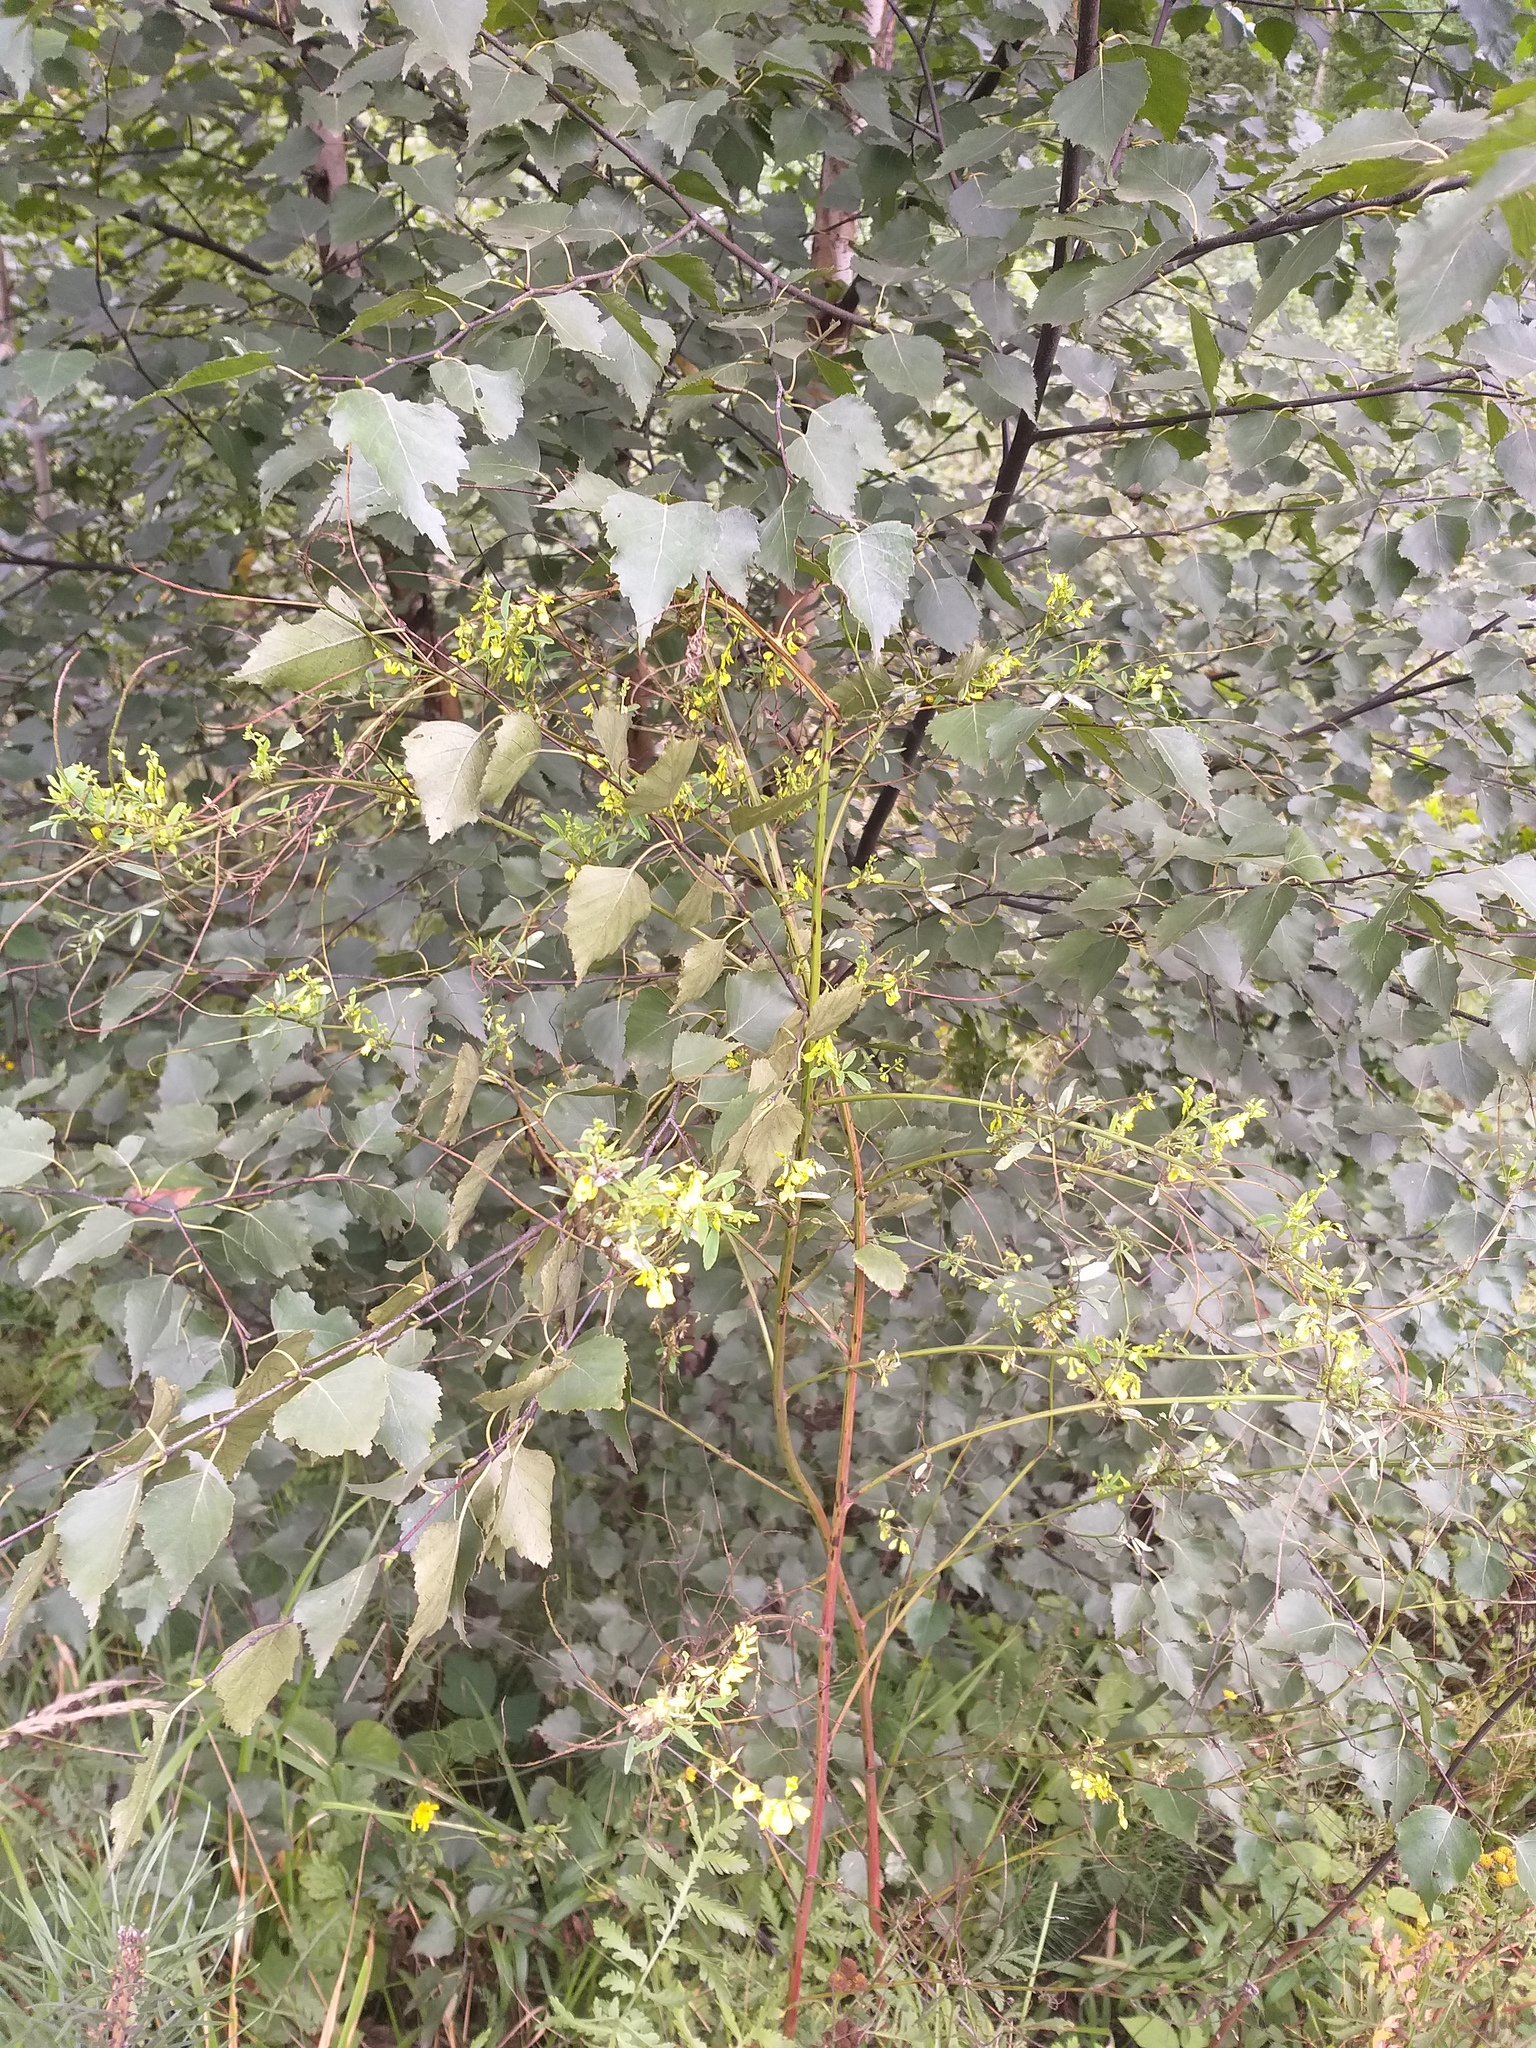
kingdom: Plantae
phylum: Tracheophyta
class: Magnoliopsida
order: Fabales
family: Fabaceae
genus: Melilotus
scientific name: Melilotus officinalis
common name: Sweetclover
